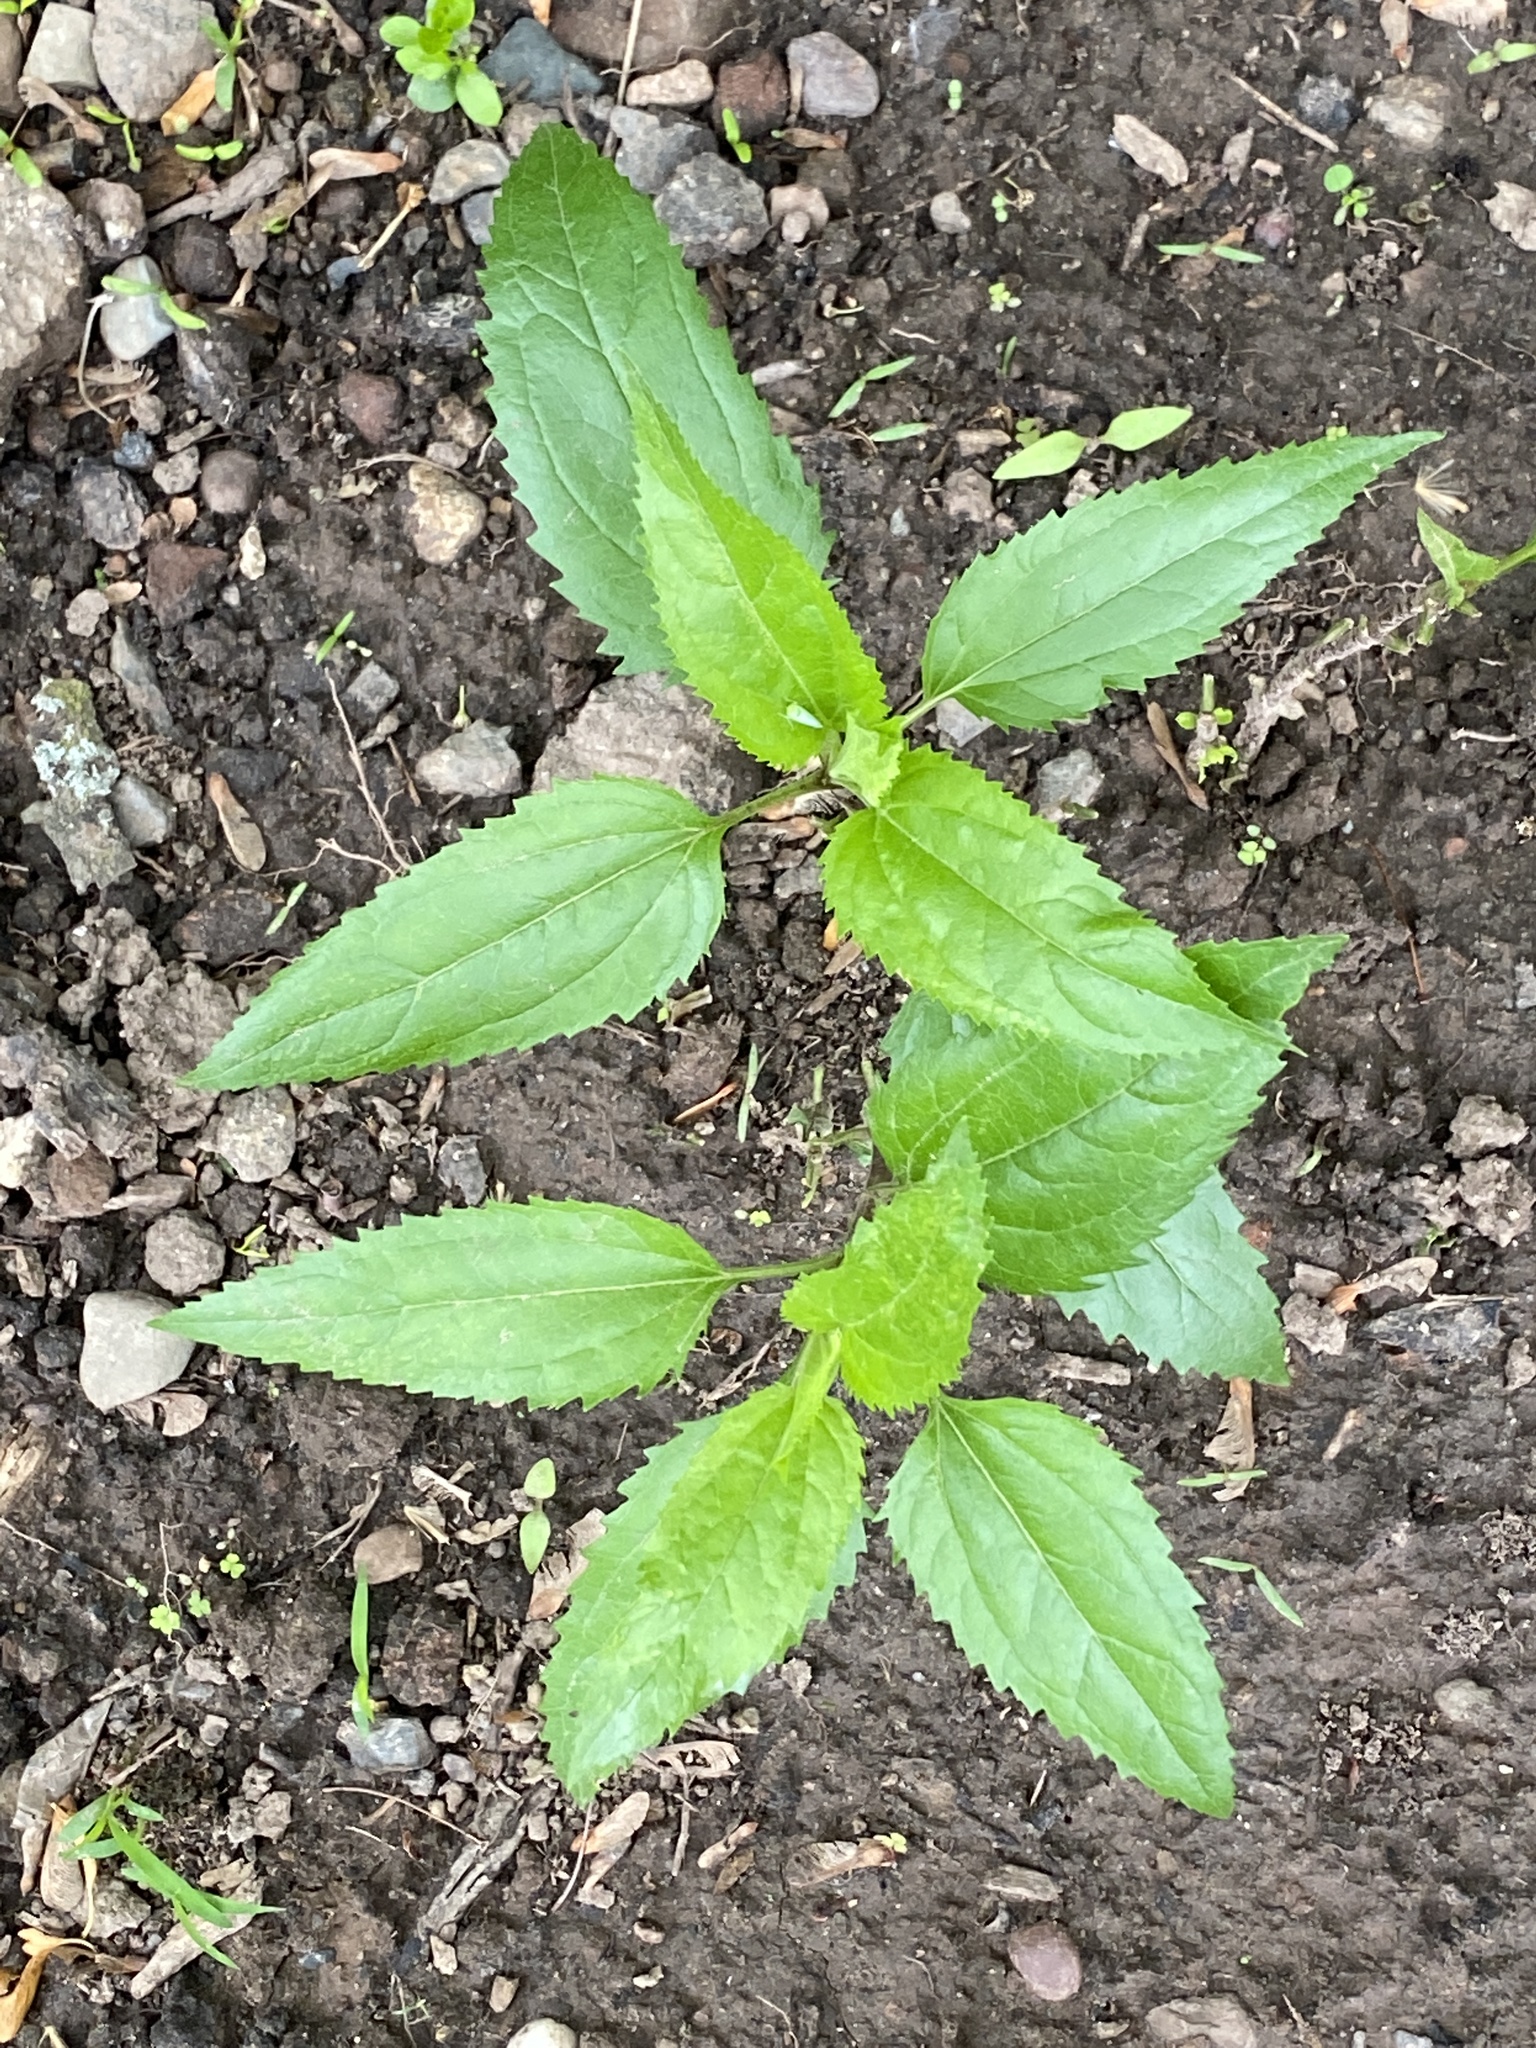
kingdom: Plantae
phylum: Tracheophyta
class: Magnoliopsida
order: Asterales
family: Asteraceae
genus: Eupatorium
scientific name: Eupatorium serotinum
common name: Late boneset
